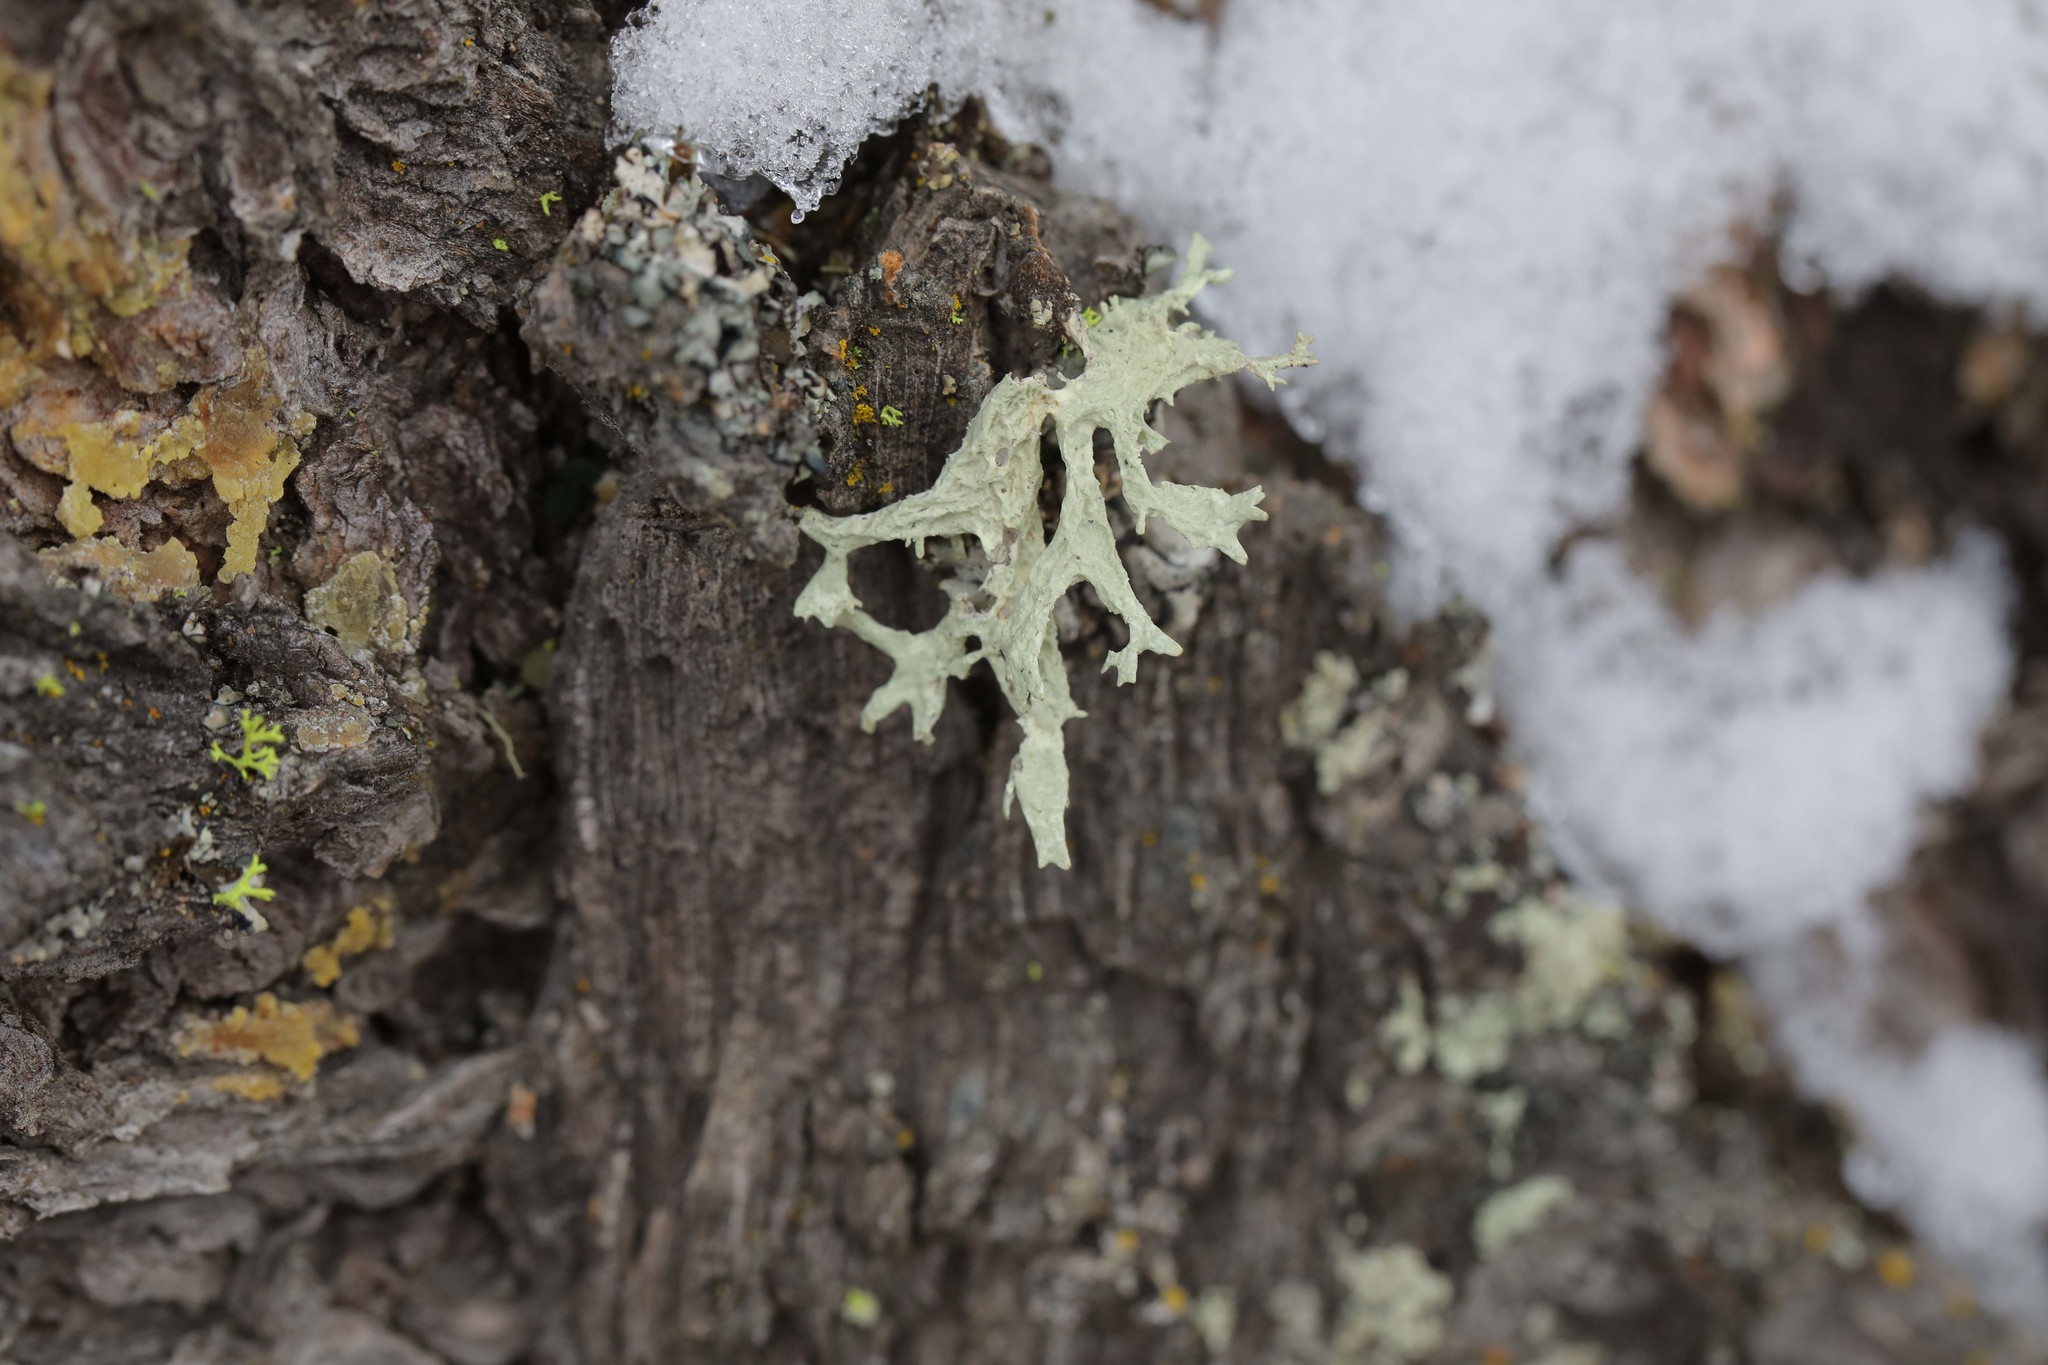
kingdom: Fungi
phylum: Ascomycota
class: Lecanoromycetes
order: Lecanorales
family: Parmeliaceae
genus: Evernia
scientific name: Evernia prunastri
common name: Oak moss
